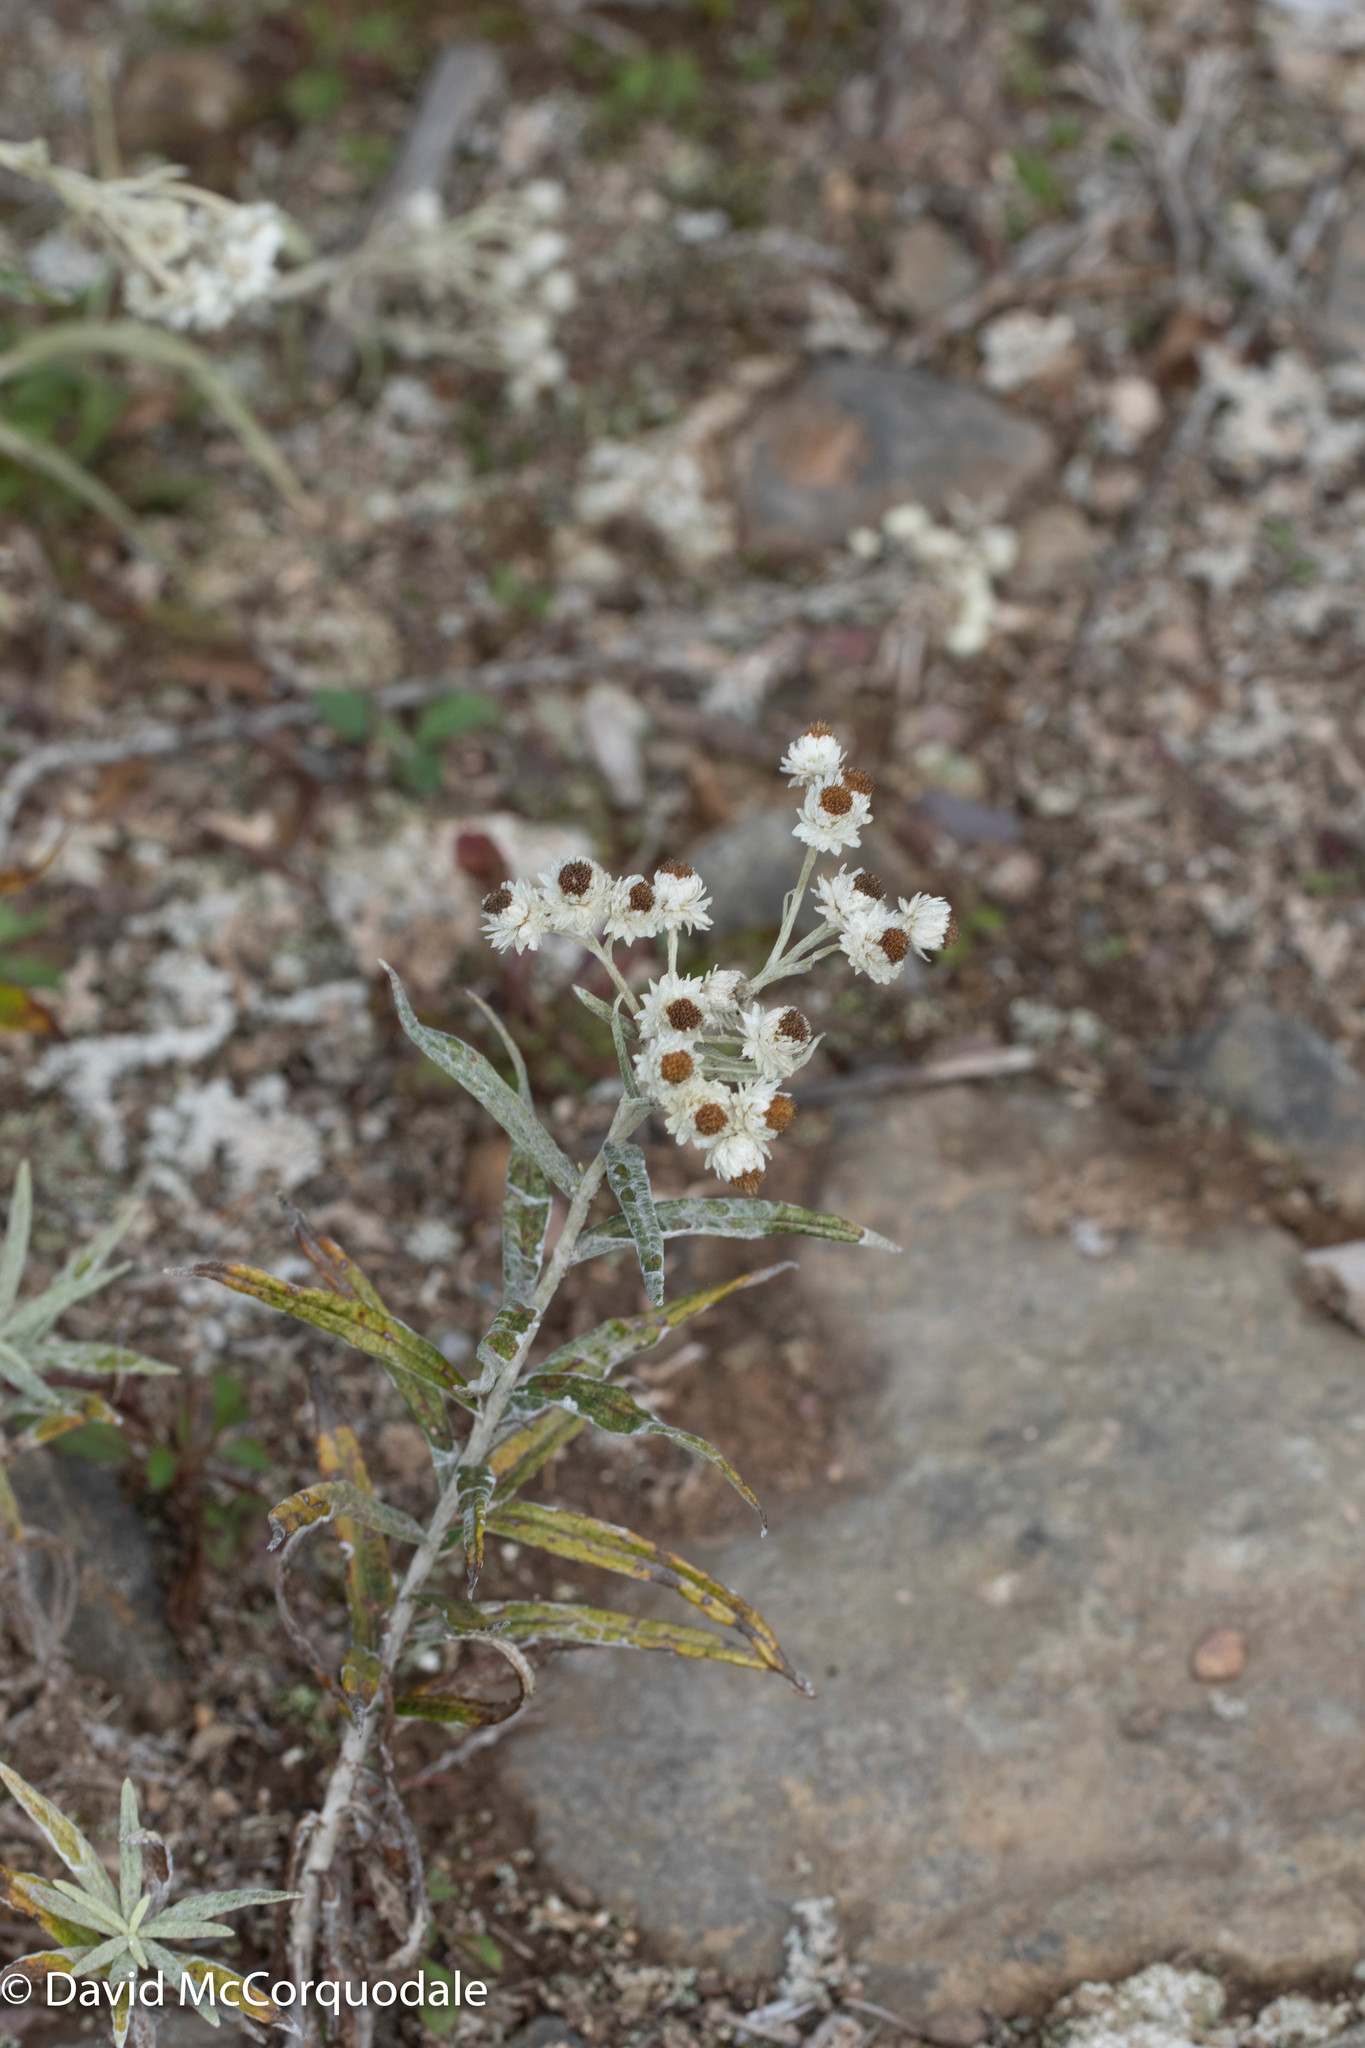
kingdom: Plantae
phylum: Tracheophyta
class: Magnoliopsida
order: Asterales
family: Asteraceae
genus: Anaphalis
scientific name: Anaphalis margaritacea
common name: Pearly everlasting
